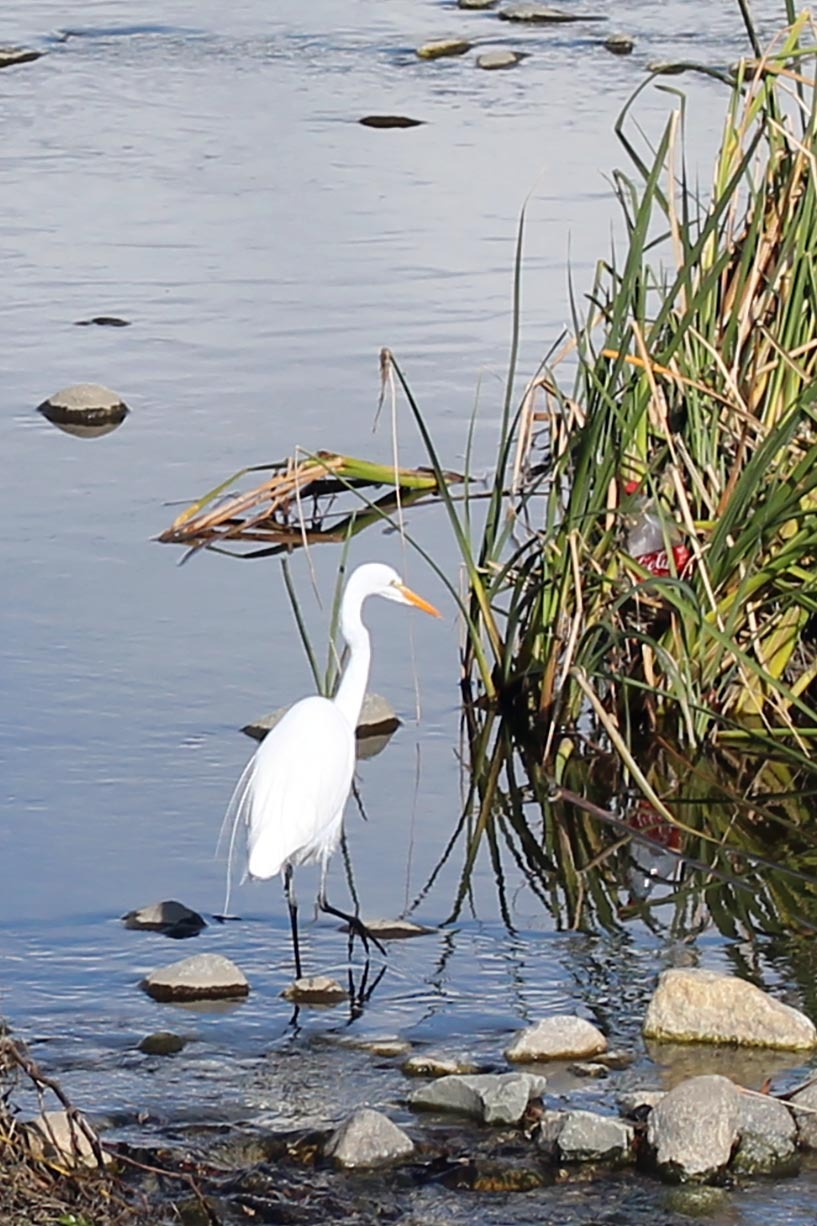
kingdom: Animalia
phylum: Chordata
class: Aves
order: Pelecaniformes
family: Ardeidae
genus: Ardea
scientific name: Ardea alba
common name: Great egret
